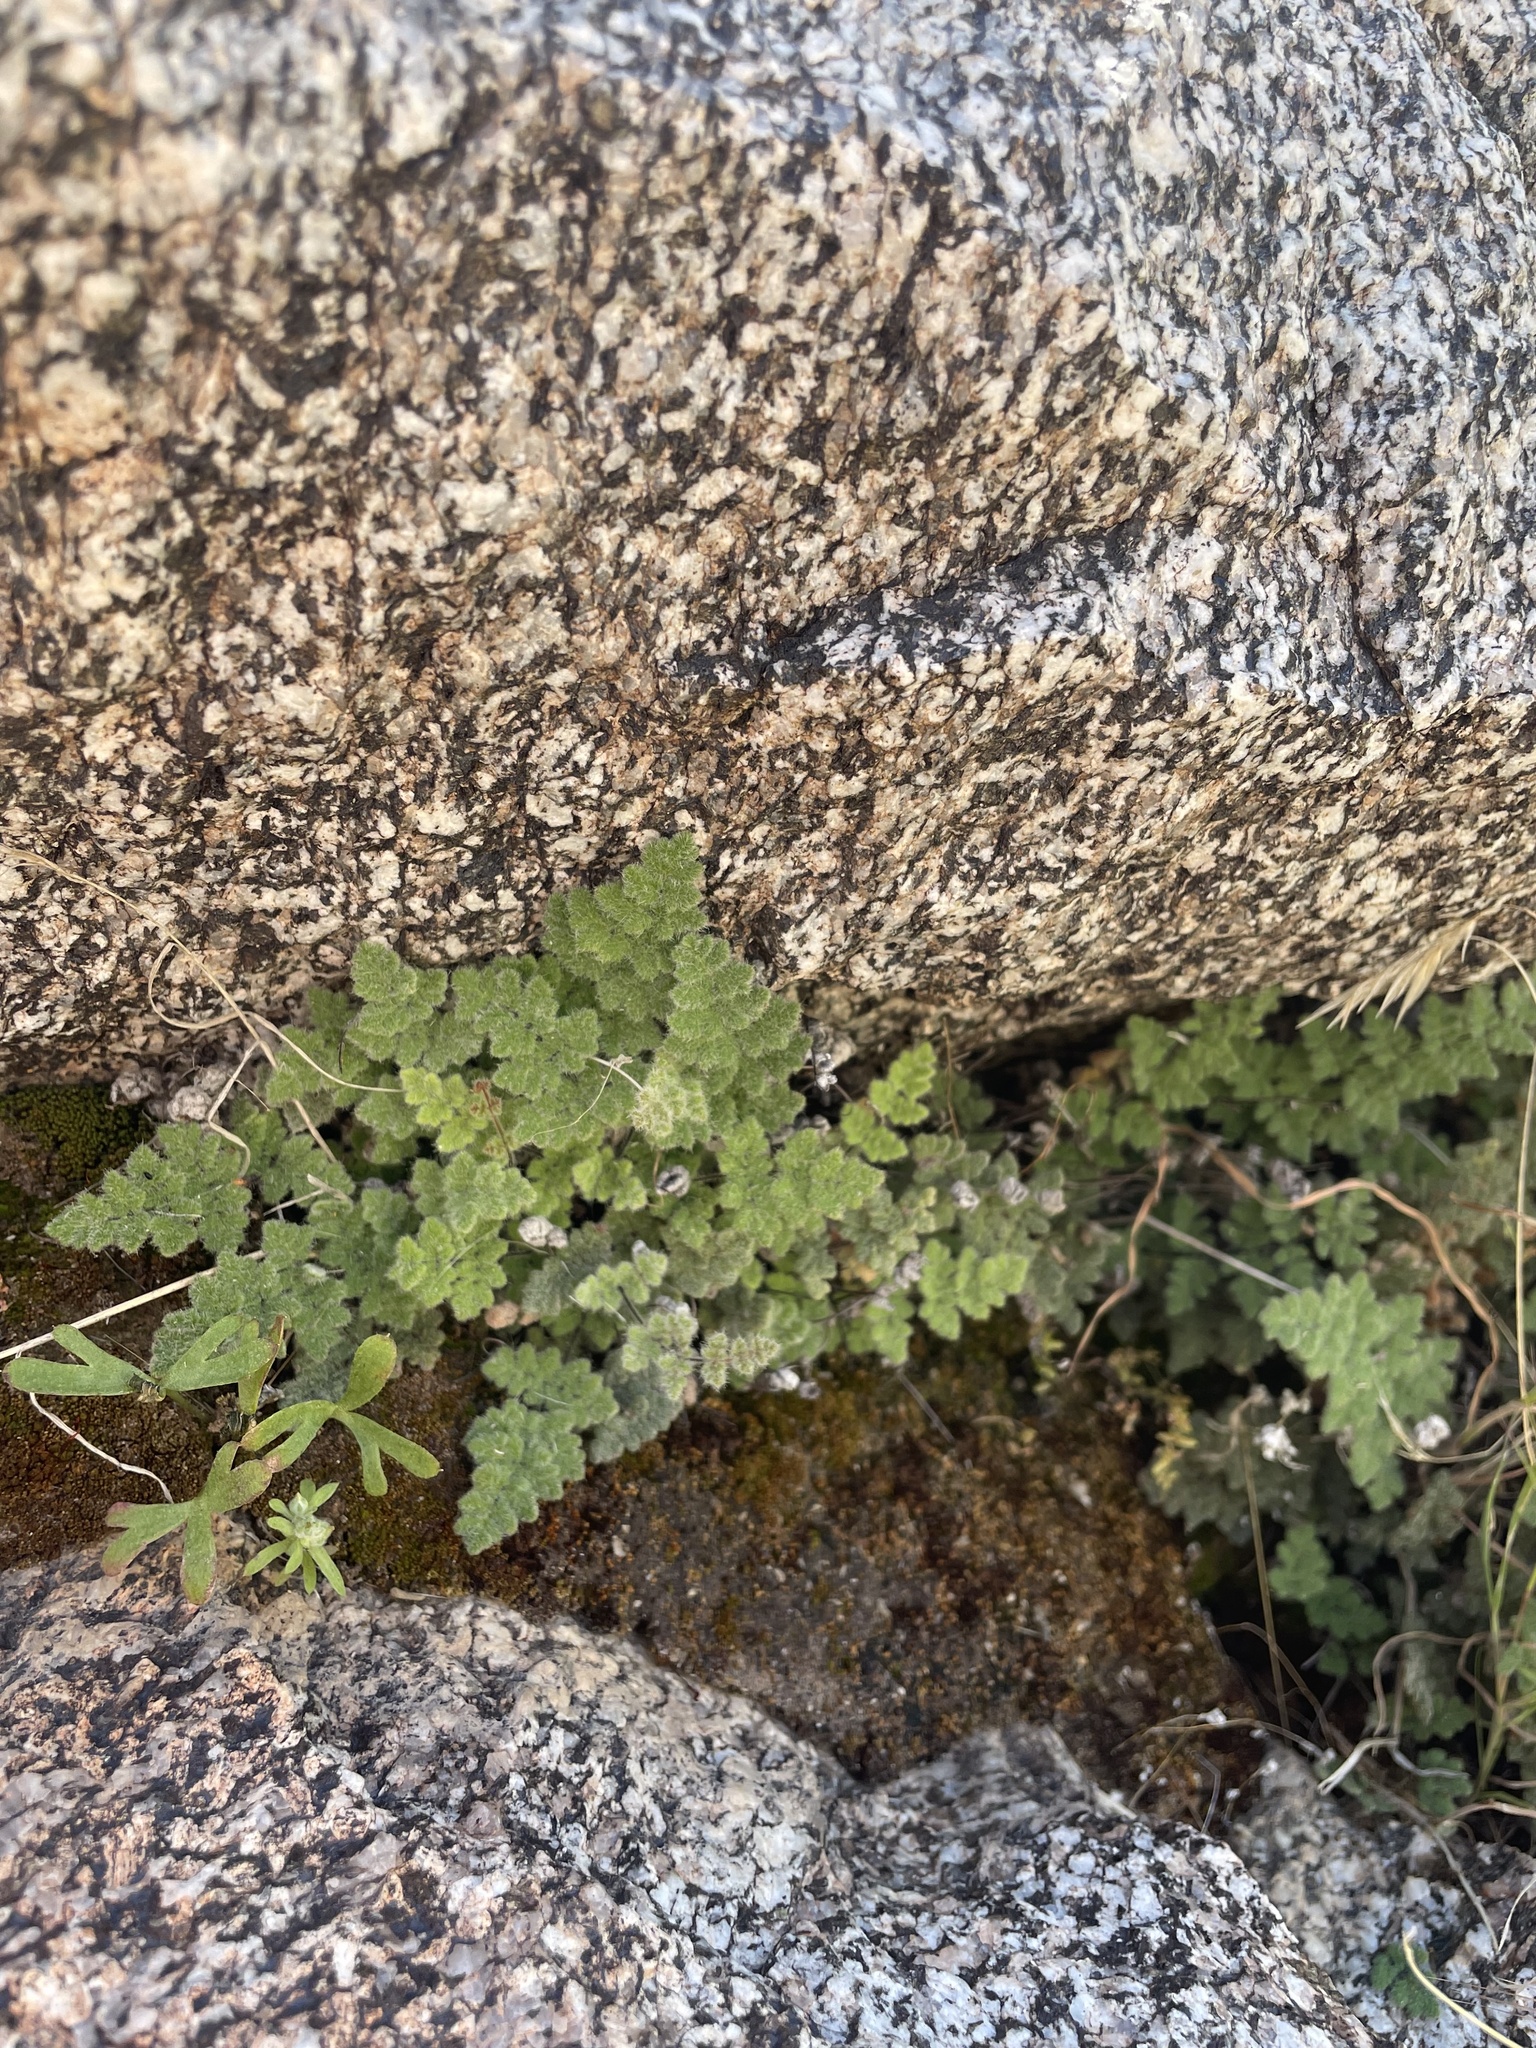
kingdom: Plantae
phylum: Tracheophyta
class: Polypodiopsida
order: Polypodiales
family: Pteridaceae
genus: Myriopteris
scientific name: Myriopteris parryi
